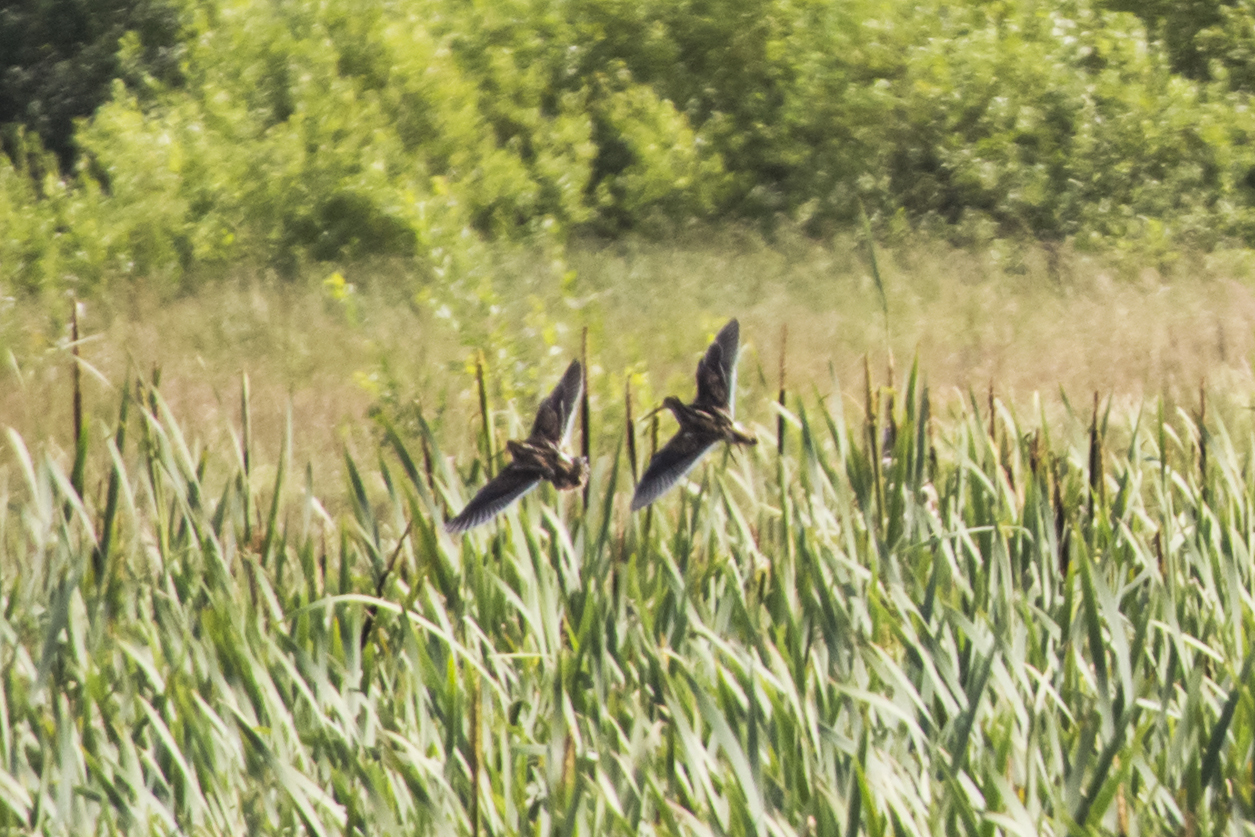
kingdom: Animalia
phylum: Chordata
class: Aves
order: Charadriiformes
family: Scolopacidae
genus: Gallinago
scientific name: Gallinago gallinago
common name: Common snipe
